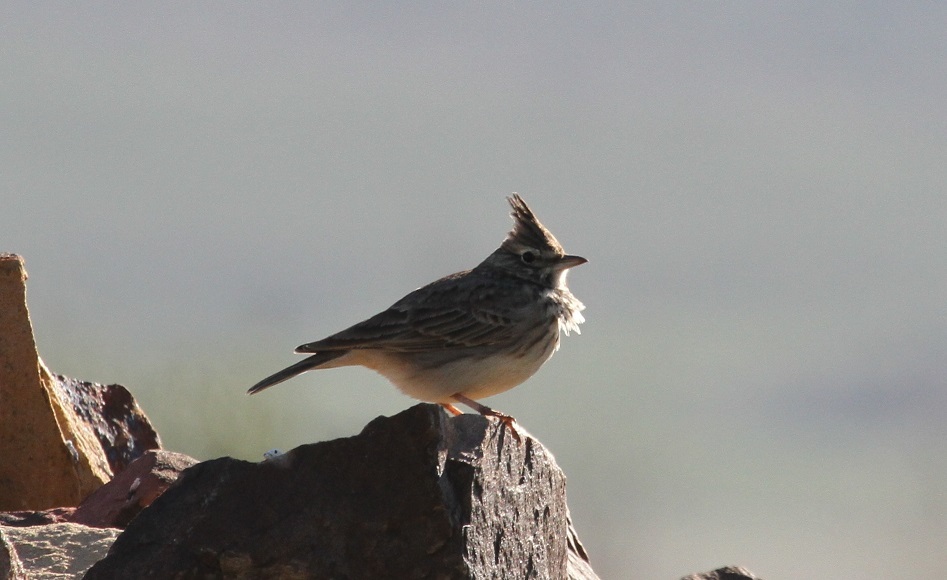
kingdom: Animalia
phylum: Chordata
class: Aves
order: Passeriformes
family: Alaudidae
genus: Galerida
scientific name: Galerida theklae
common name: Thekla lark
